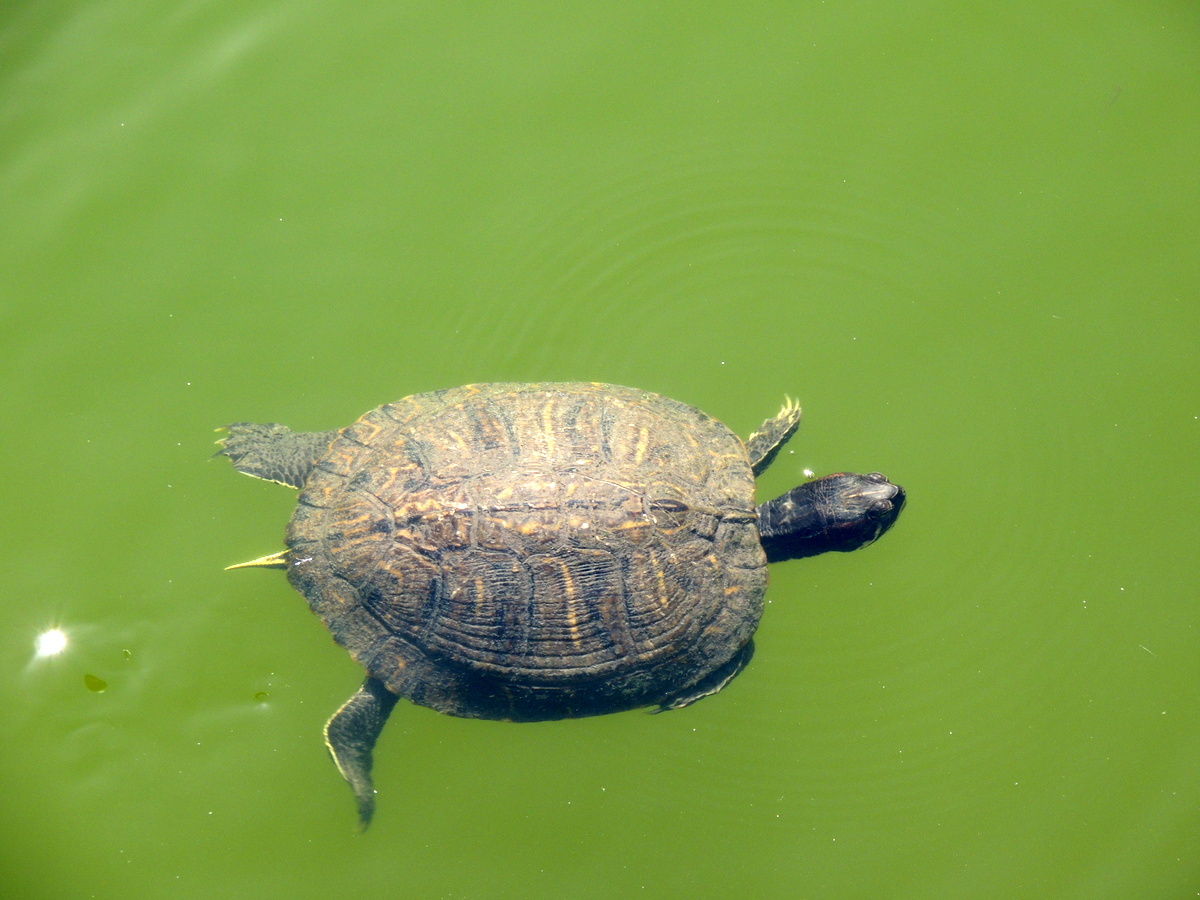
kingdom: Animalia
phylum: Chordata
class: Testudines
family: Emydidae
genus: Trachemys
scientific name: Trachemys scripta
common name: Slider
